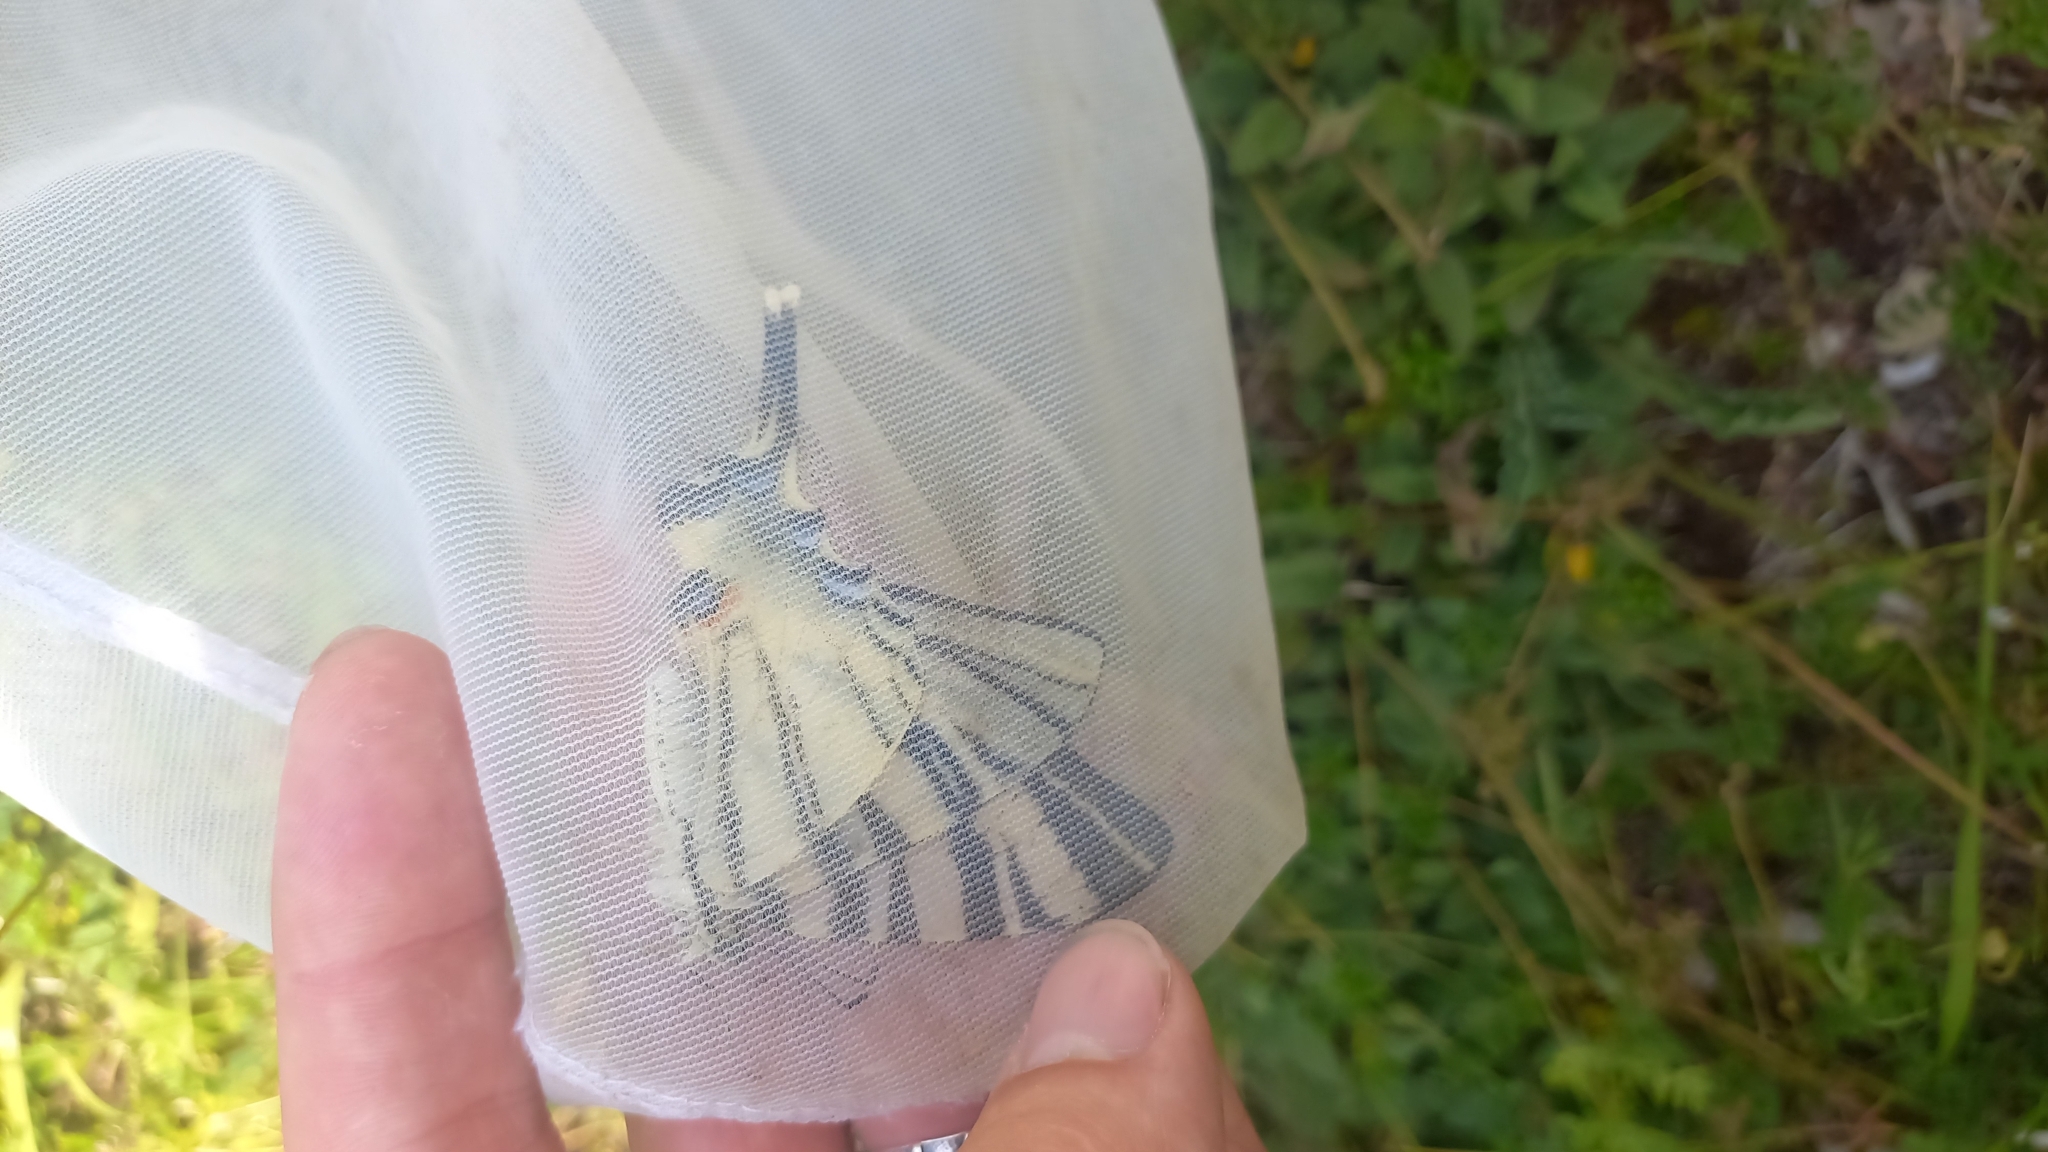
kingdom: Animalia
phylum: Arthropoda
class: Insecta
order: Lepidoptera
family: Papilionidae
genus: Iphiclides
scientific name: Iphiclides podalirius
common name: Scarce swallowtail
